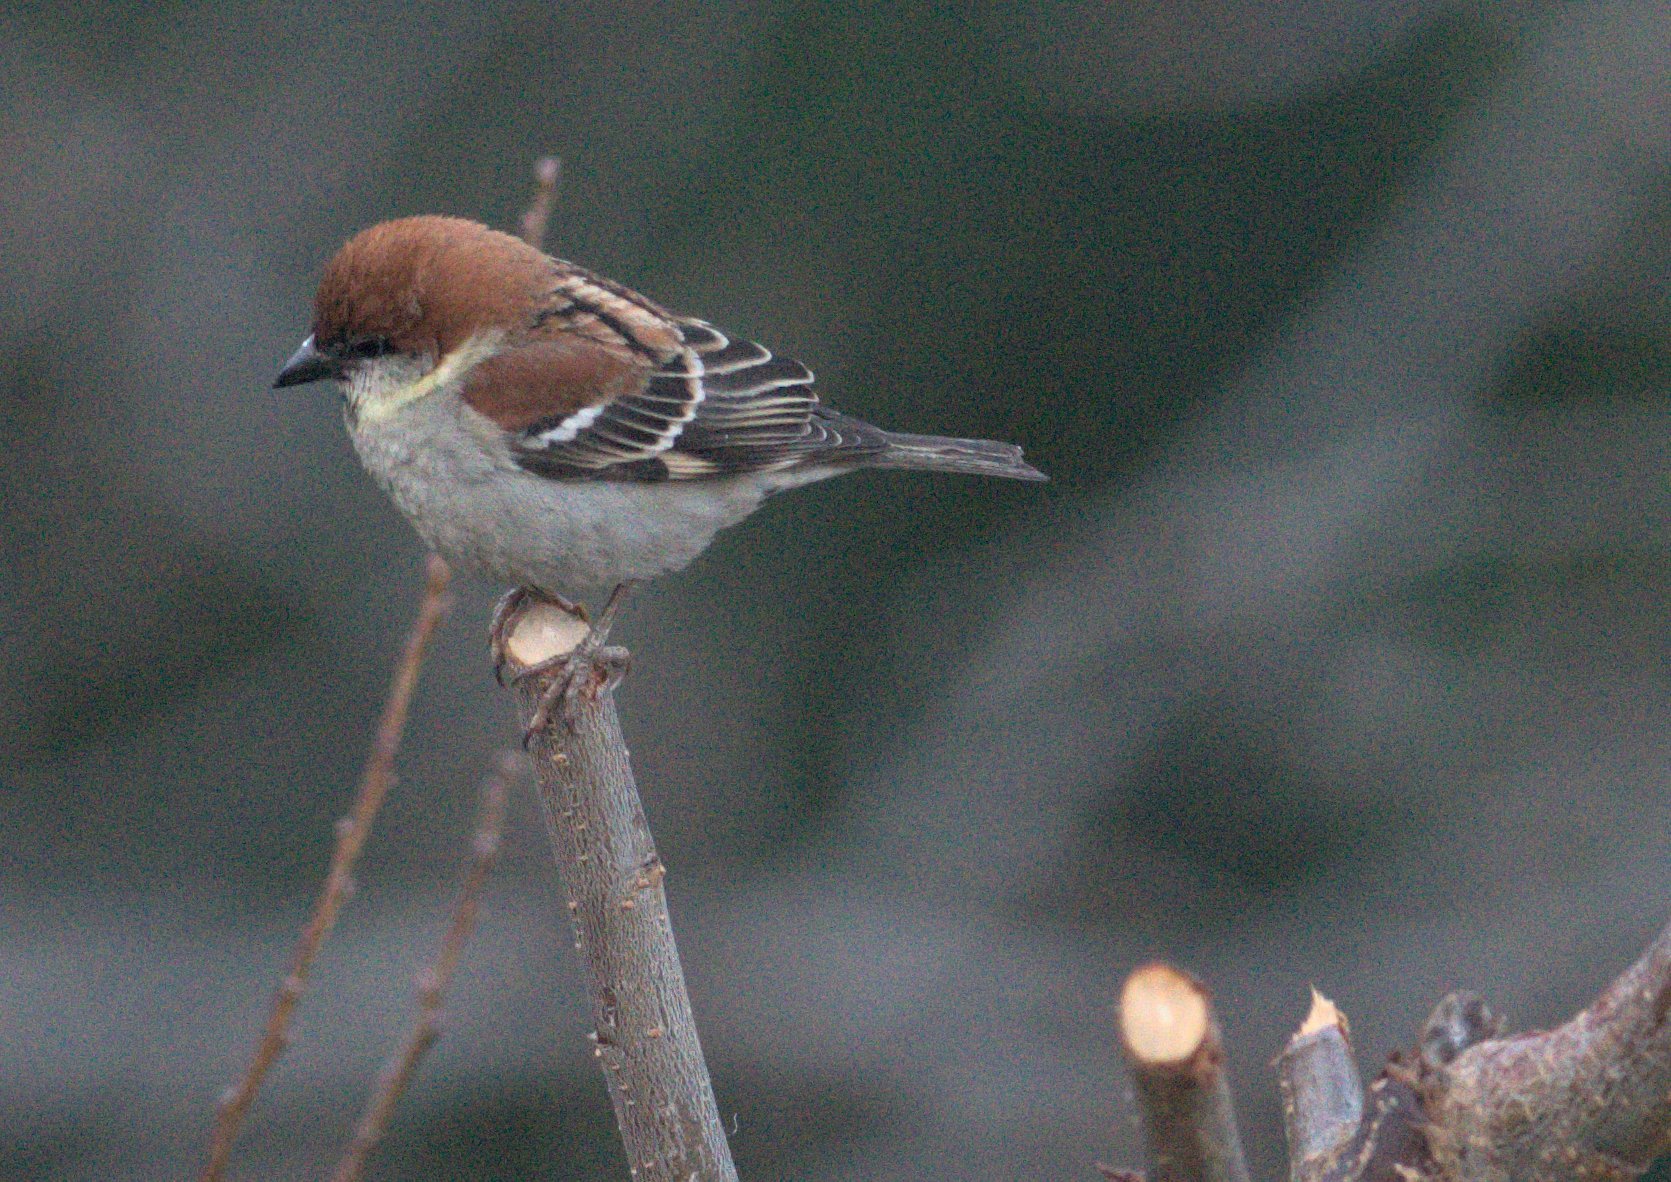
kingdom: Animalia
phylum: Chordata
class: Aves
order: Passeriformes
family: Passeridae
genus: Passer
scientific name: Passer cinnamomeus
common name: Russet sparrow
